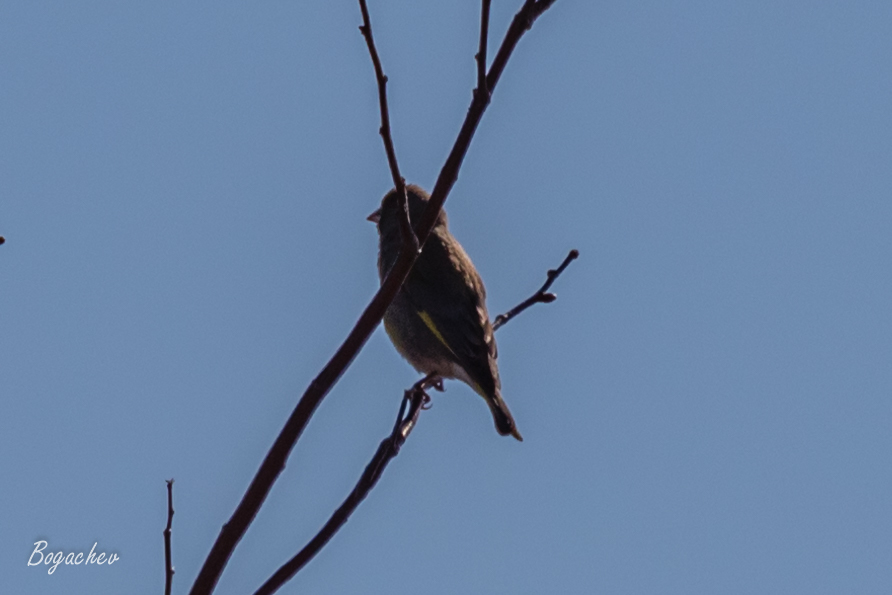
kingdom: Plantae
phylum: Tracheophyta
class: Liliopsida
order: Poales
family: Poaceae
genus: Chloris
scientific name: Chloris chloris
